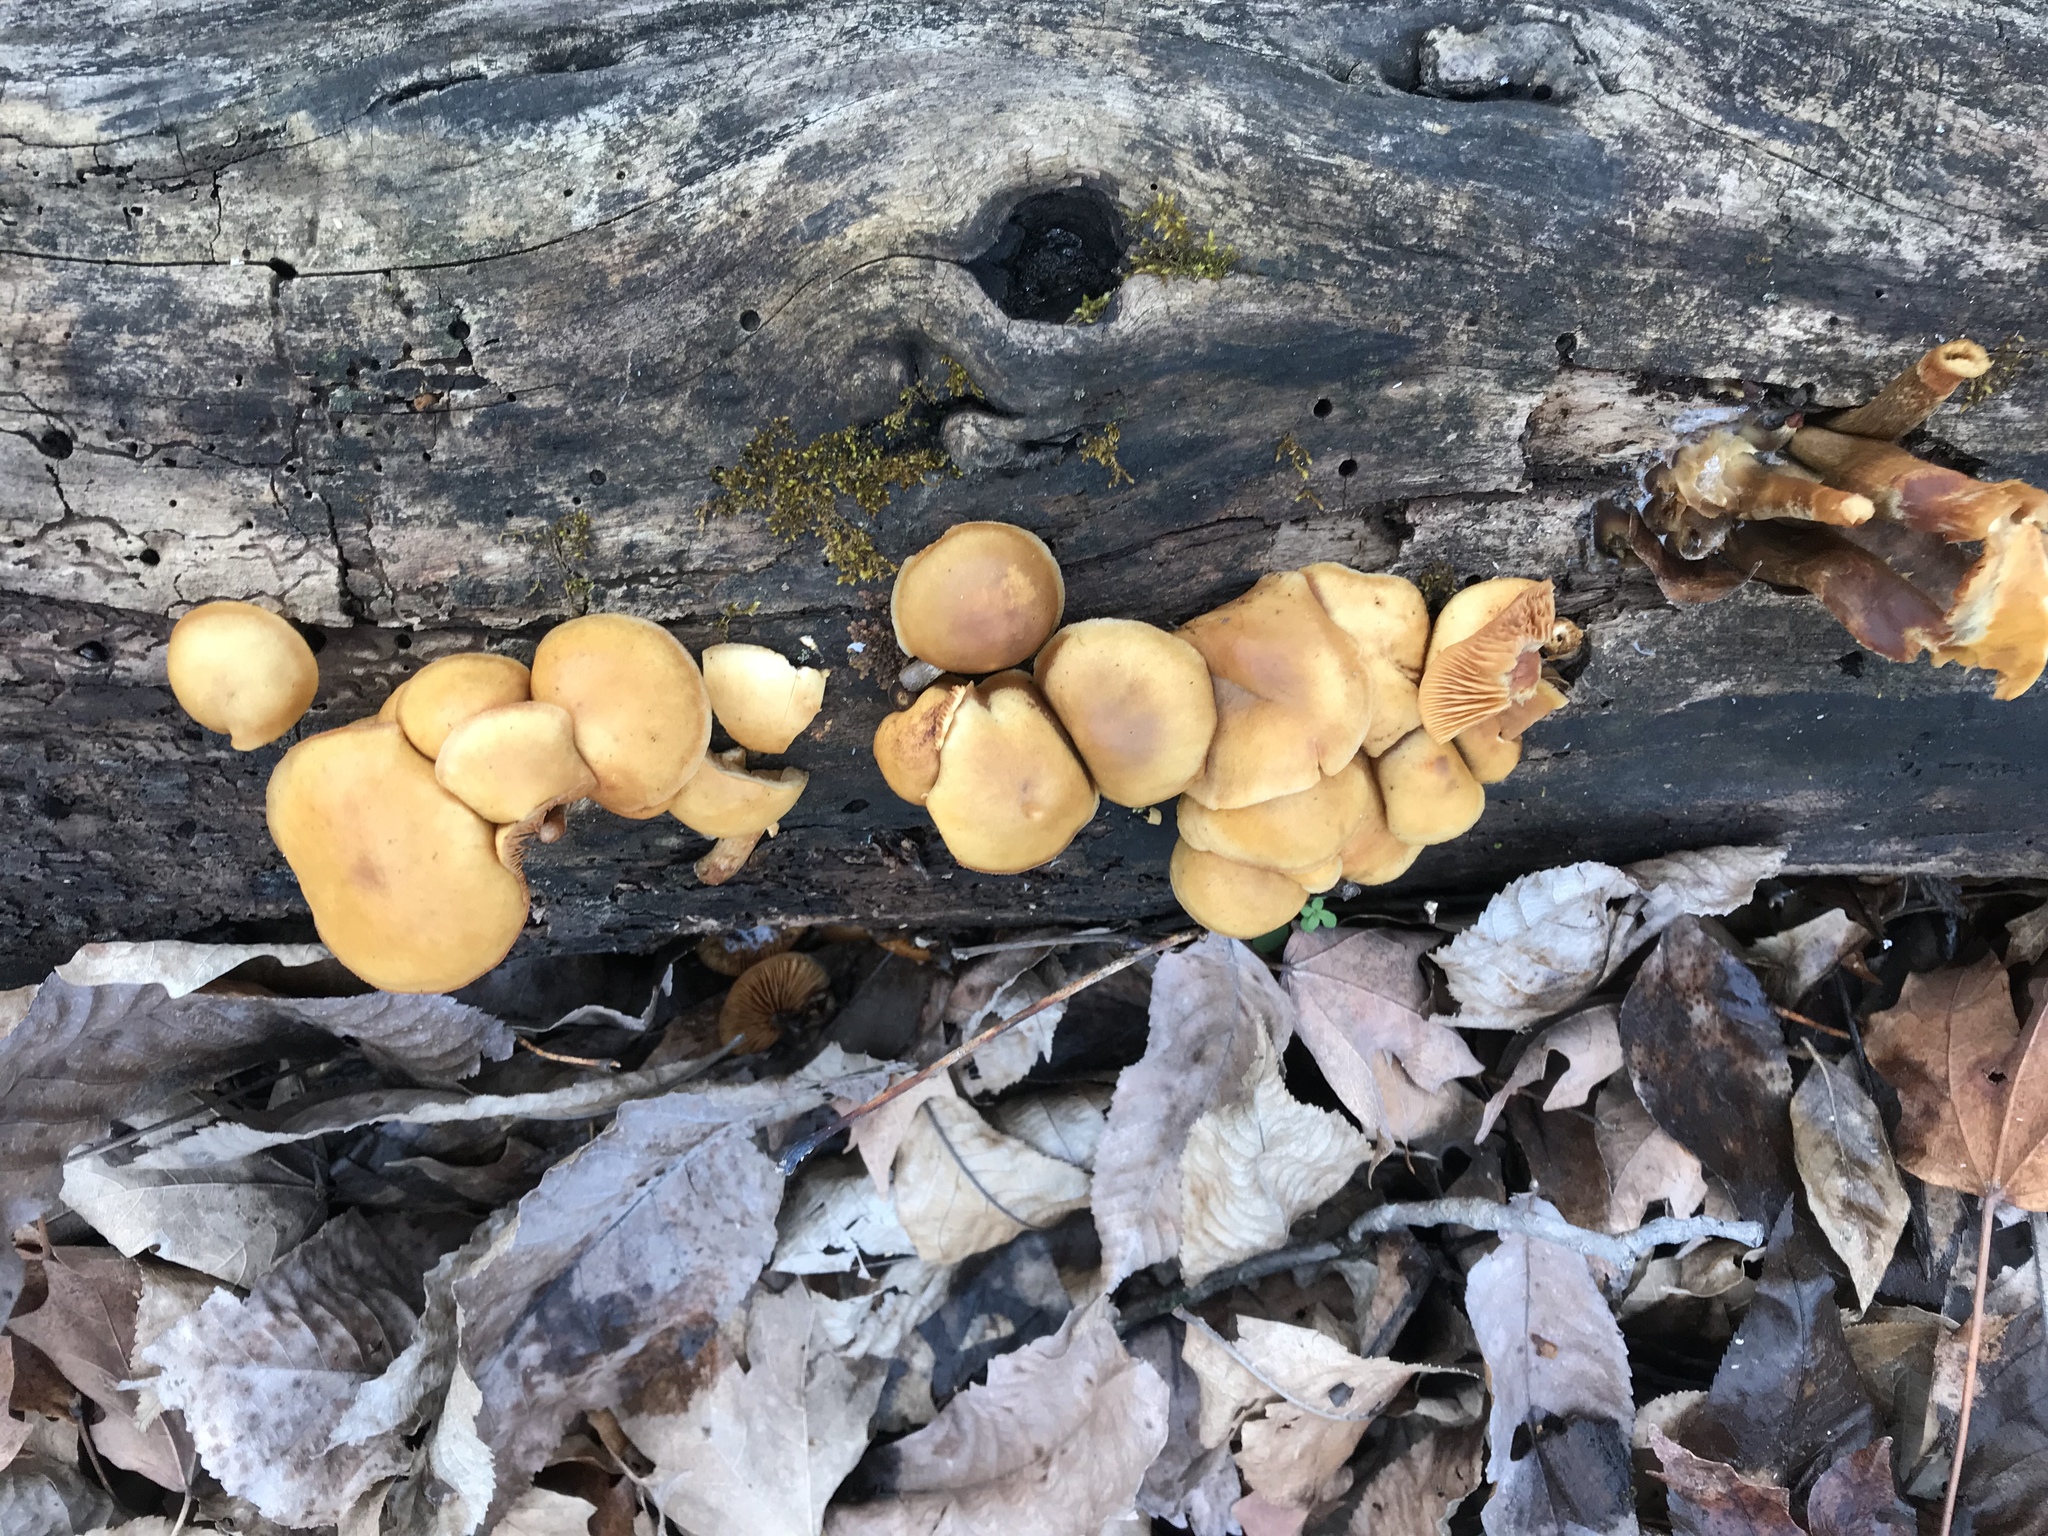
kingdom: Fungi
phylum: Basidiomycota
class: Agaricomycetes
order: Agaricales
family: Hymenogastraceae
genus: Galerina
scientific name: Galerina marginata
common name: Funeral bell
